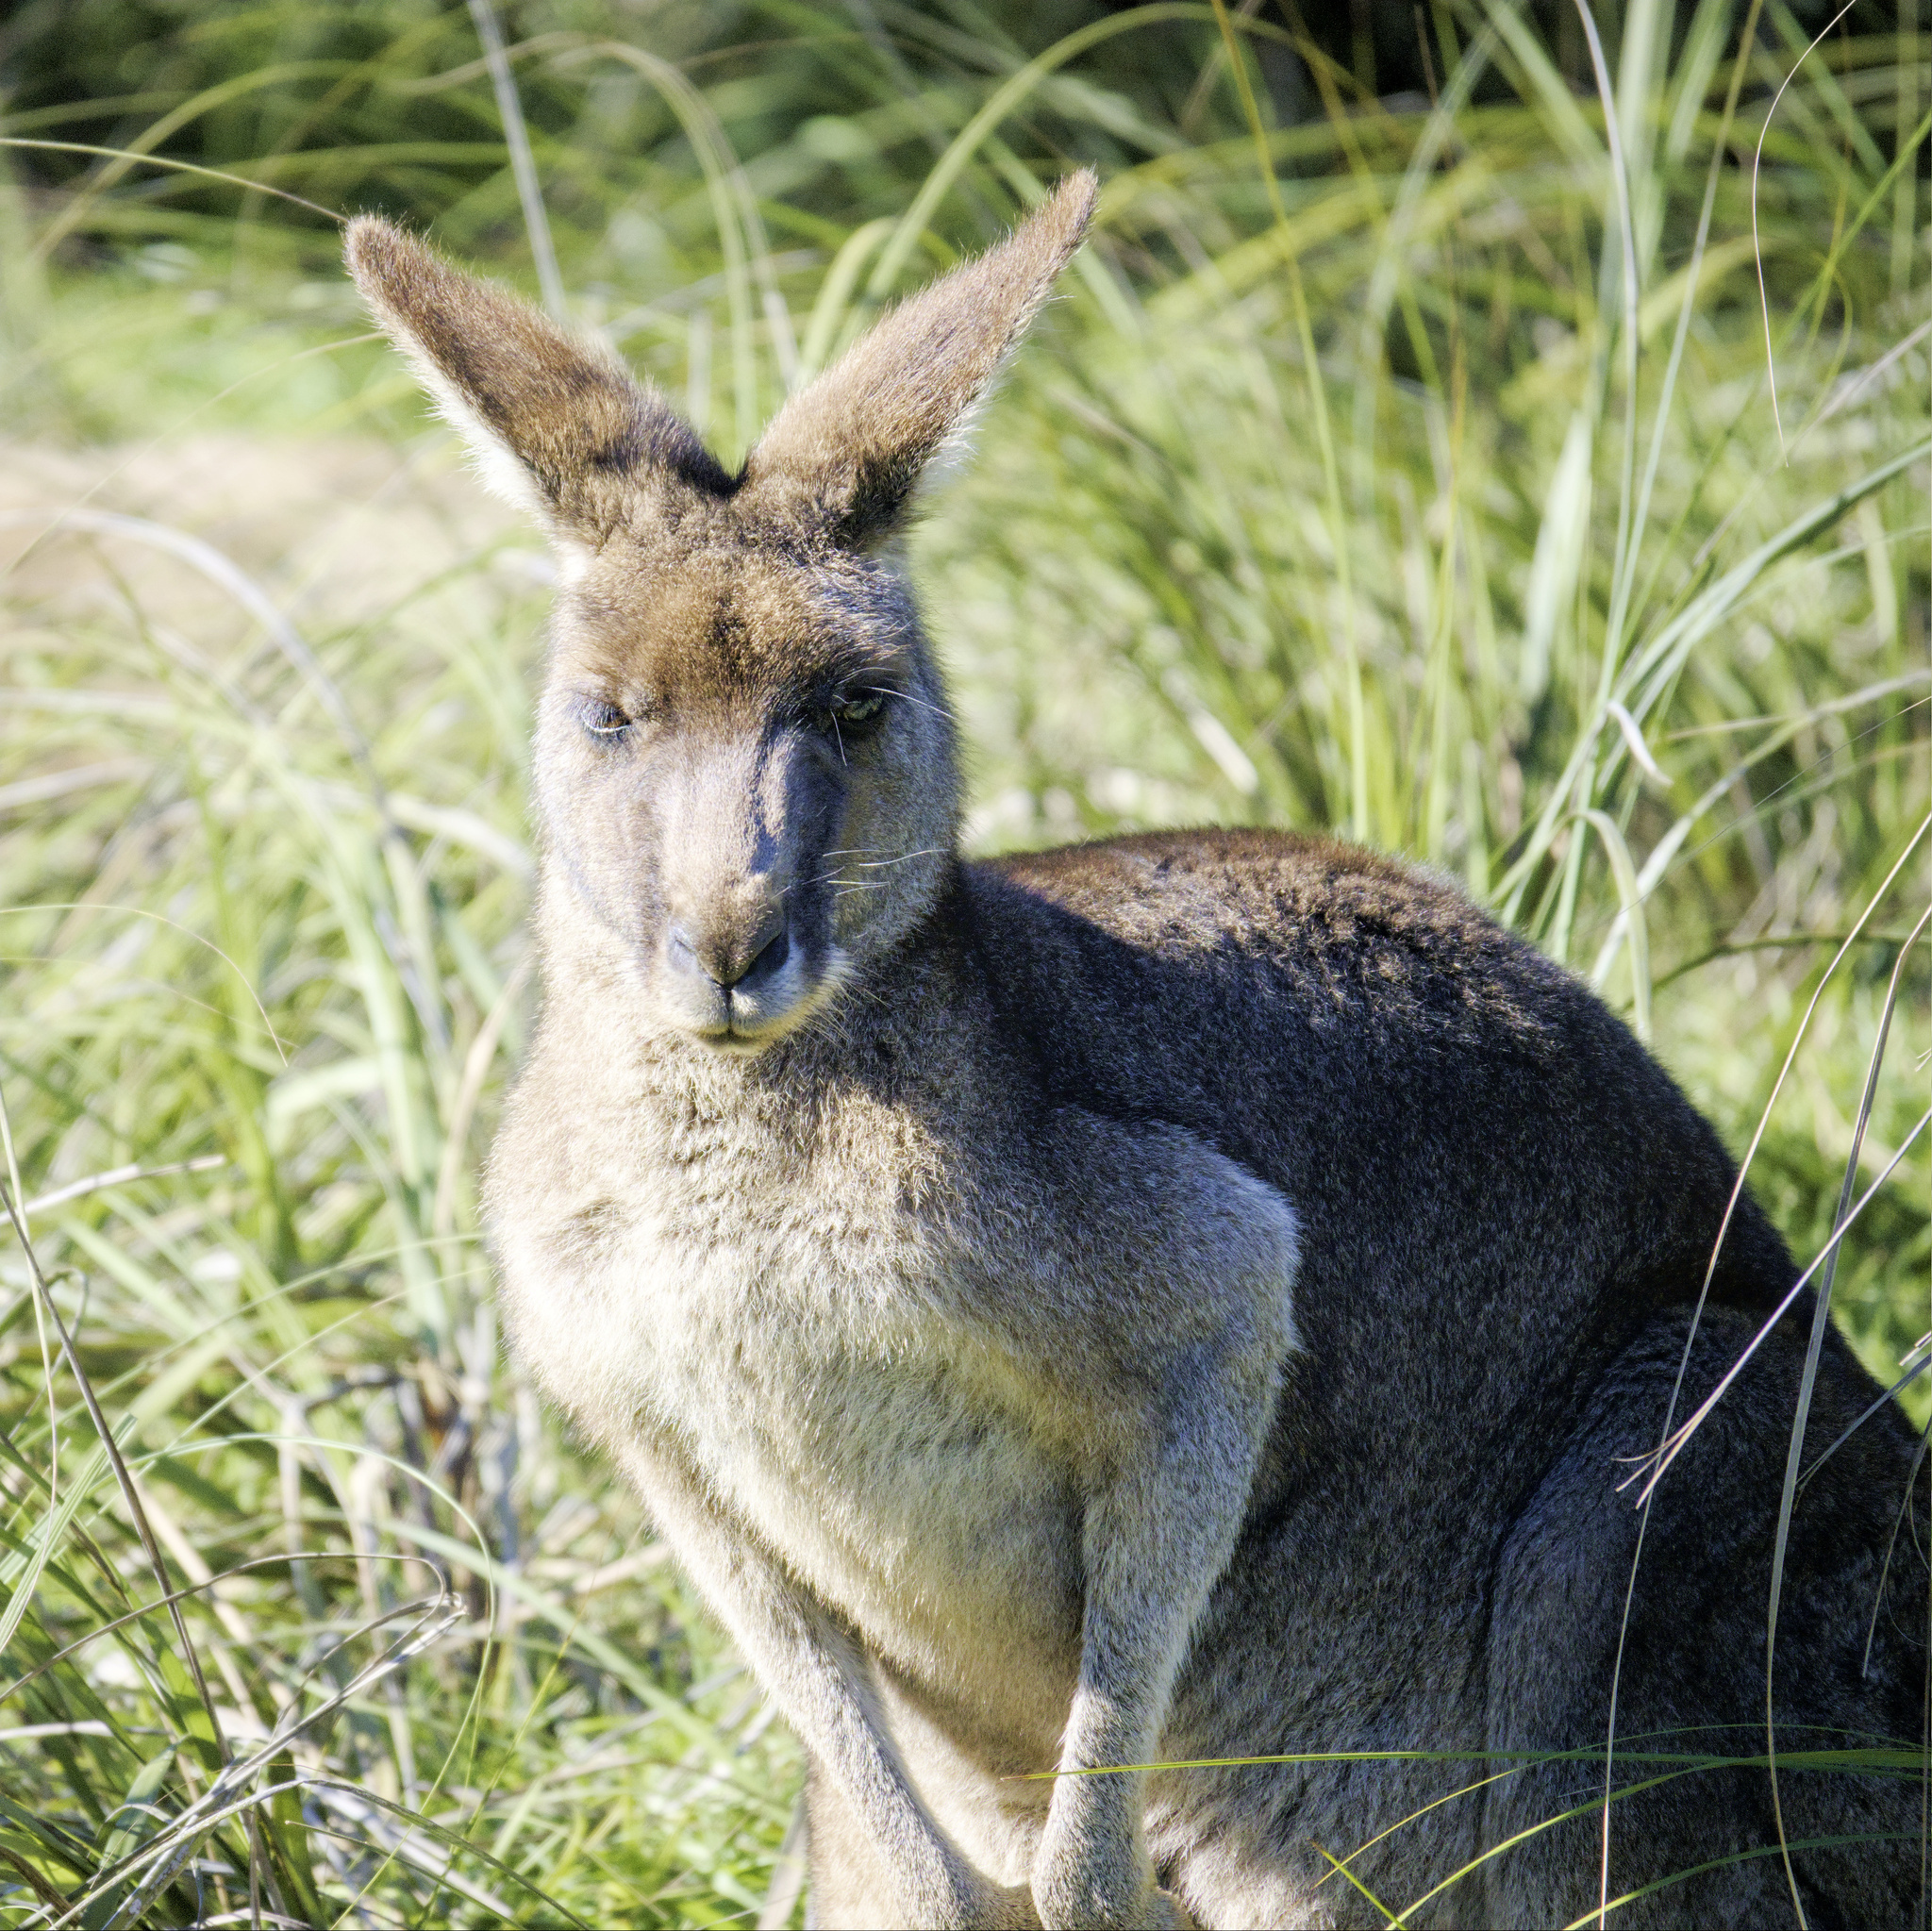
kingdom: Animalia
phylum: Chordata
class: Mammalia
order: Diprotodontia
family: Macropodidae
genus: Macropus
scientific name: Macropus giganteus
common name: Eastern grey kangaroo
